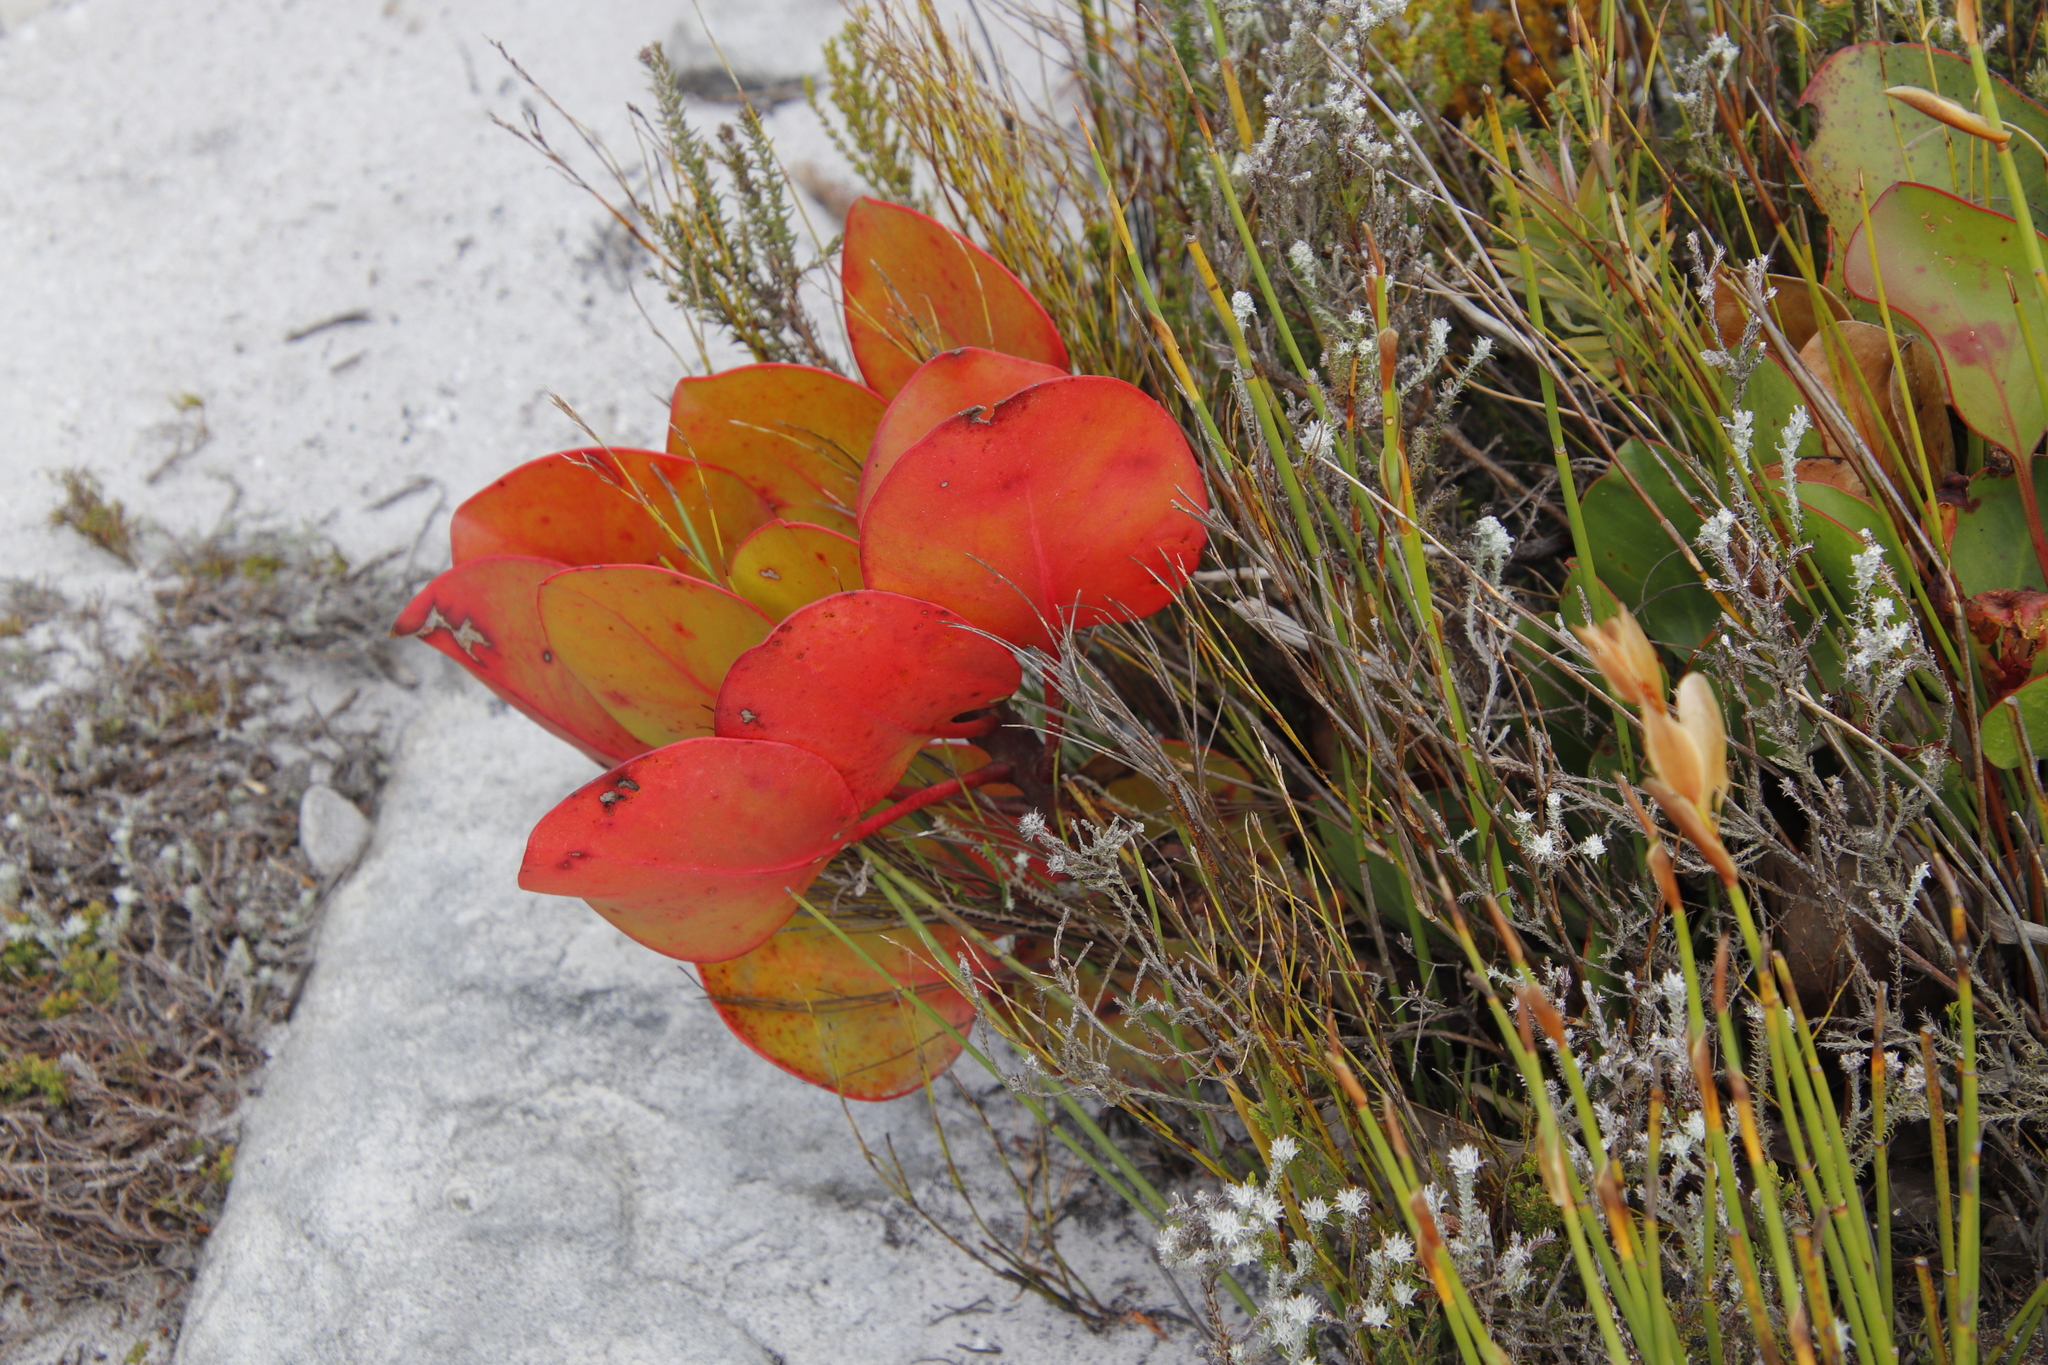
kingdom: Plantae
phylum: Tracheophyta
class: Magnoliopsida
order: Proteales
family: Proteaceae
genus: Protea
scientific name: Protea cynaroides
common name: King protea
